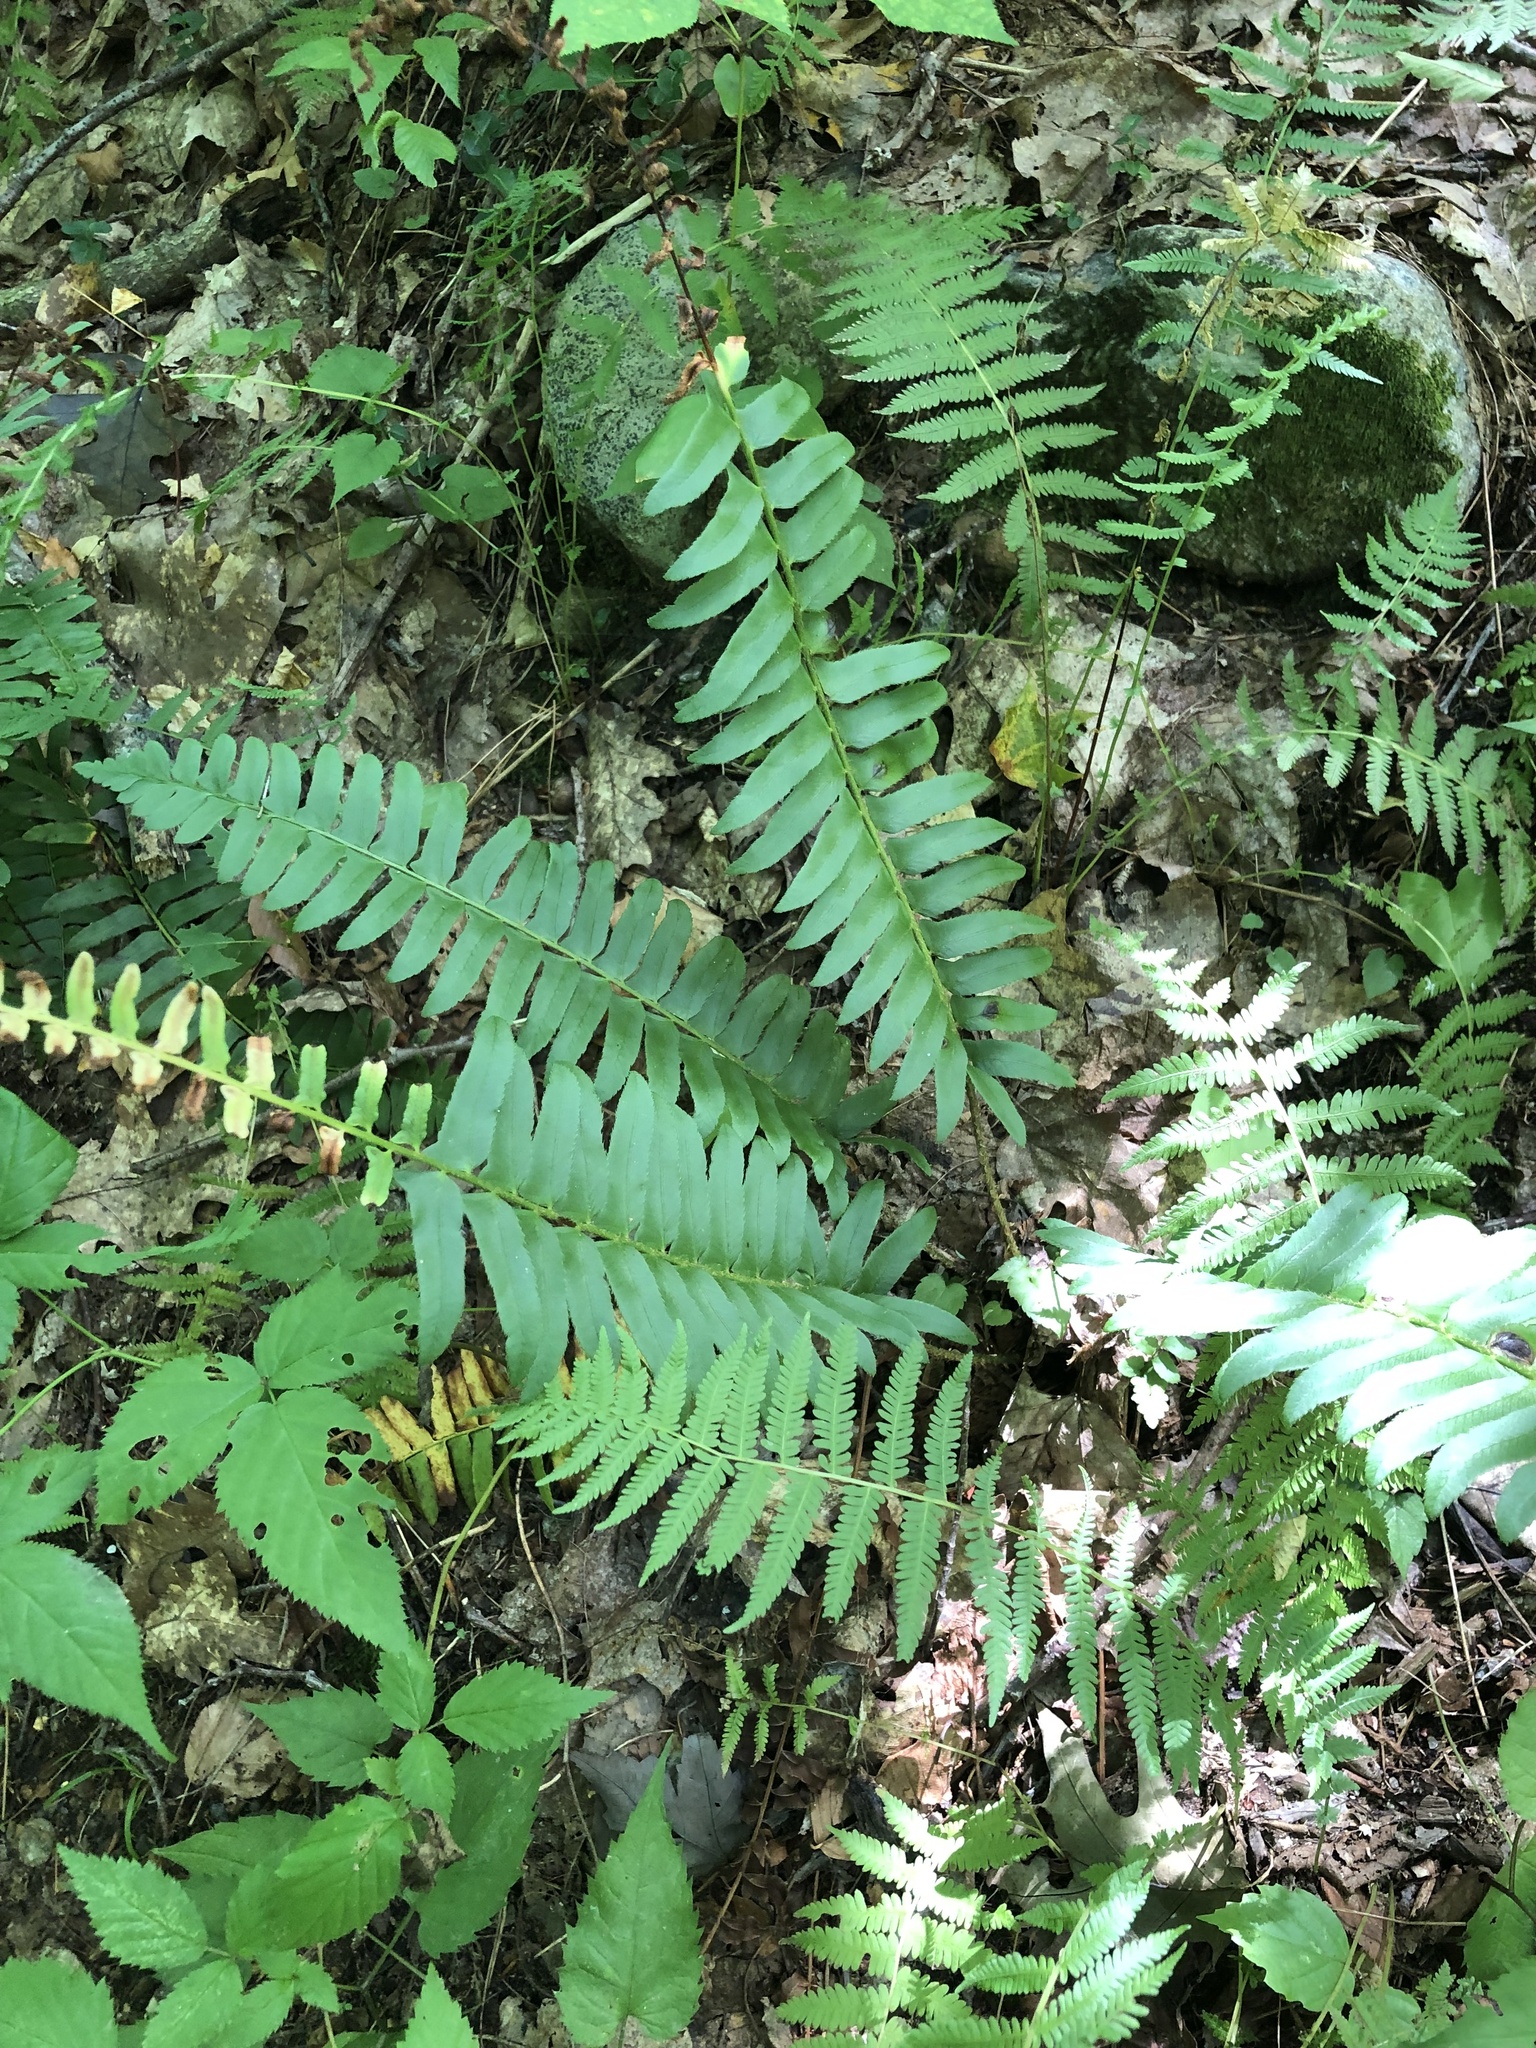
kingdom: Plantae
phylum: Tracheophyta
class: Polypodiopsida
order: Polypodiales
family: Dryopteridaceae
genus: Polystichum
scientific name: Polystichum acrostichoides
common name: Christmas fern
